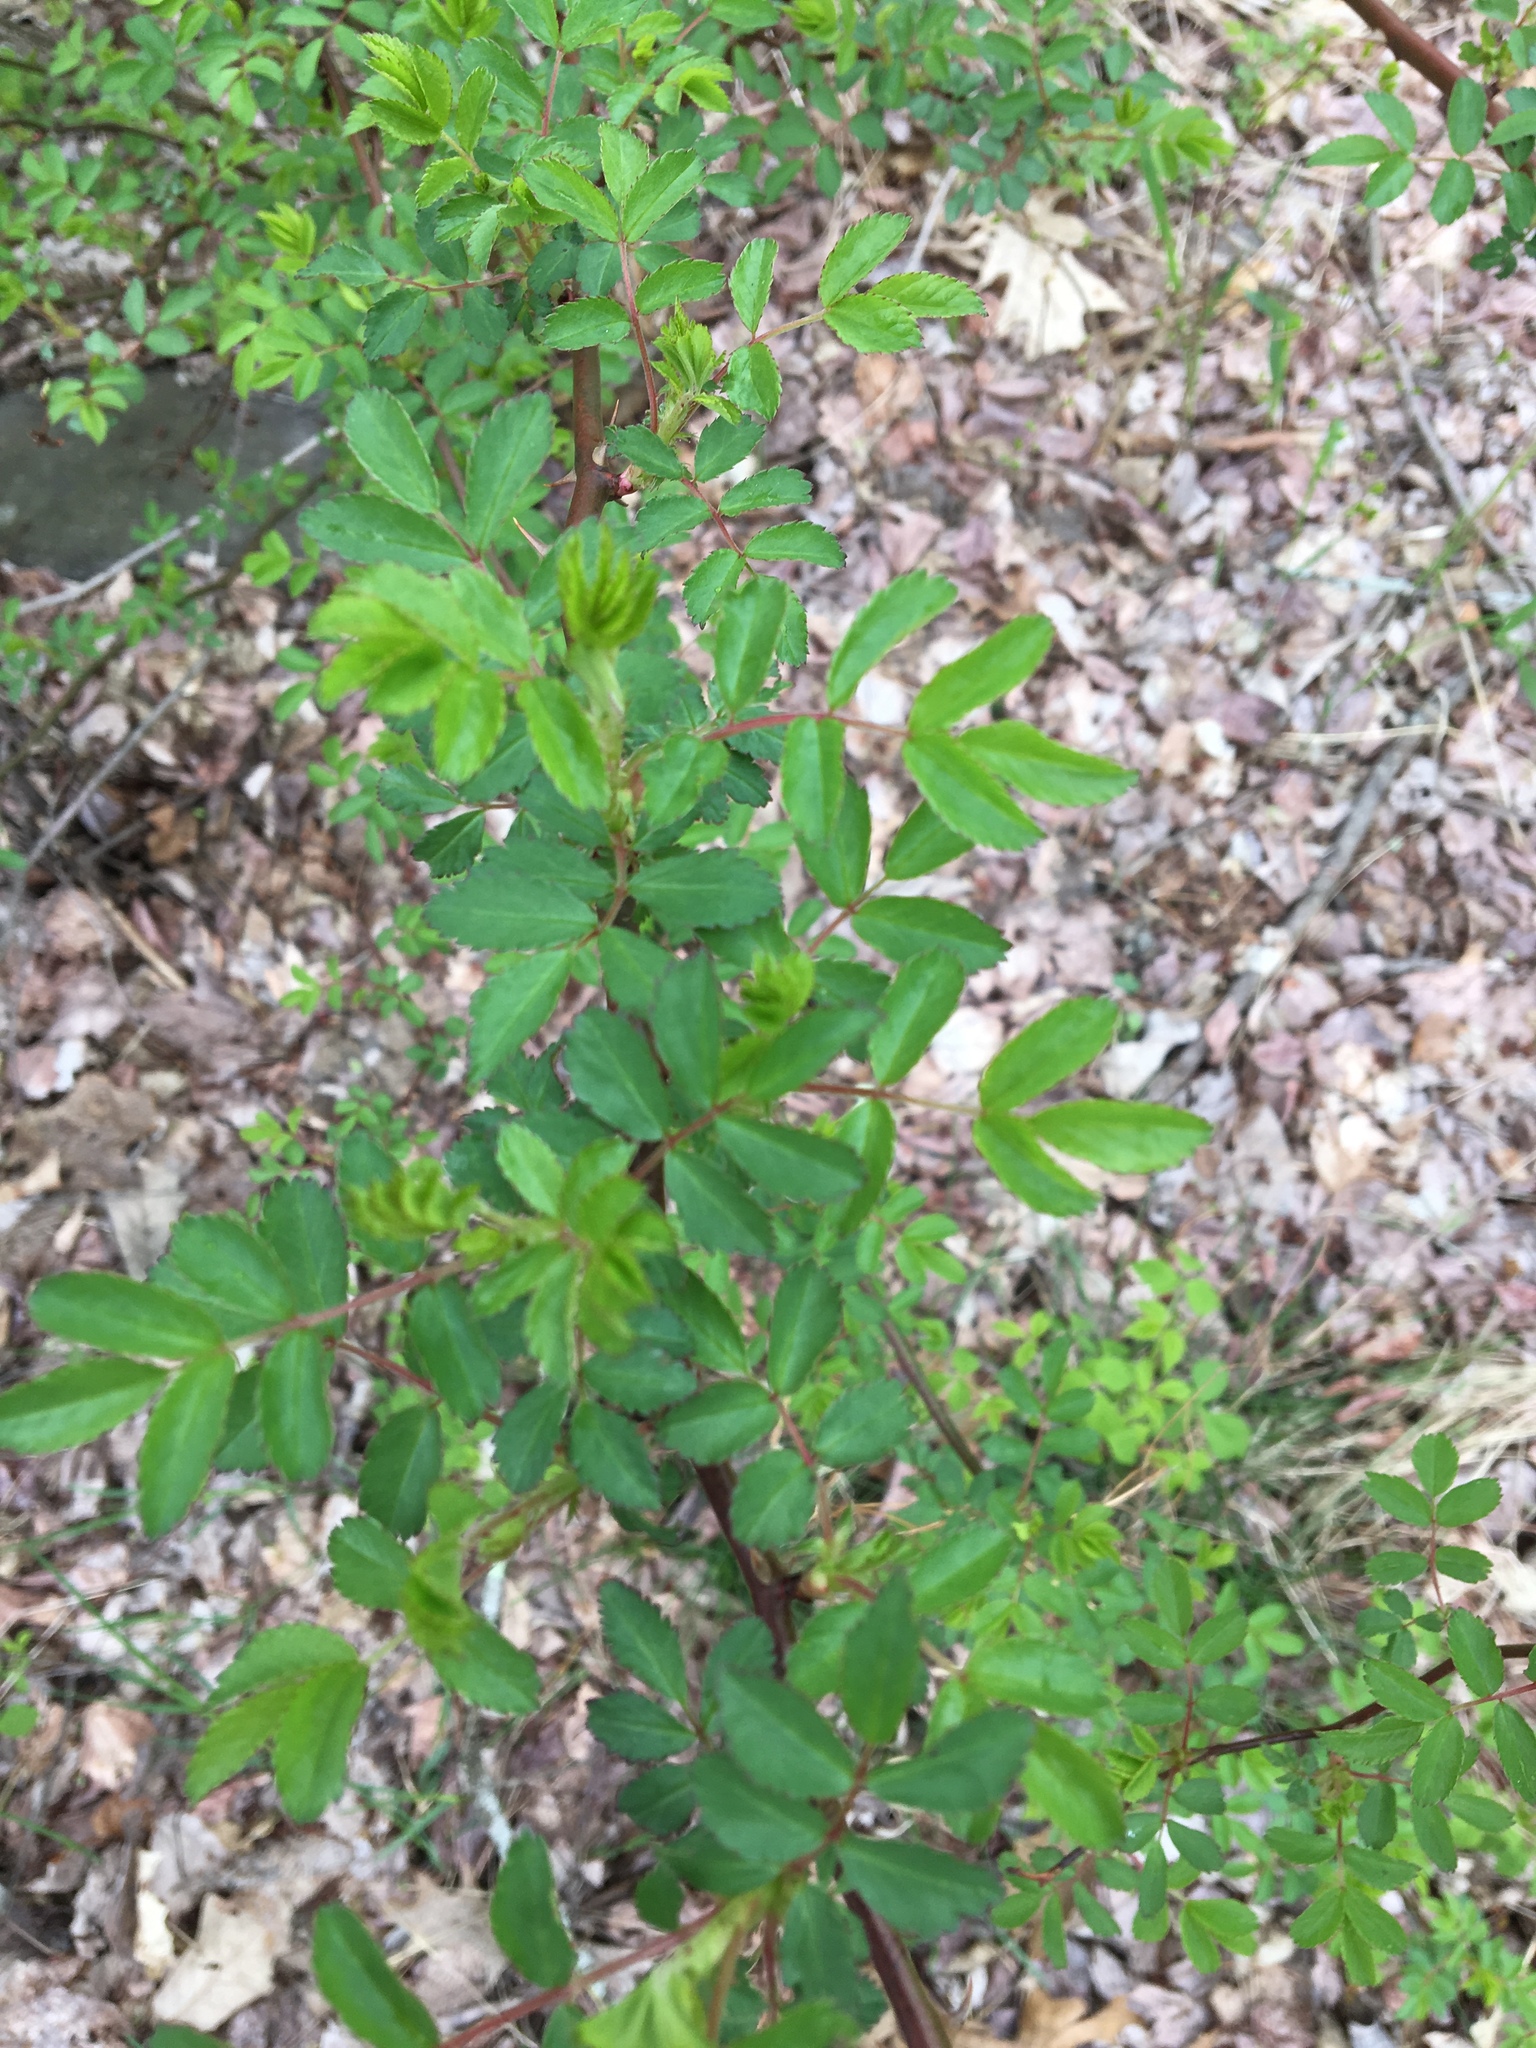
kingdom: Plantae
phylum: Tracheophyta
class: Magnoliopsida
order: Rosales
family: Rosaceae
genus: Rosa
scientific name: Rosa multiflora
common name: Multiflora rose
